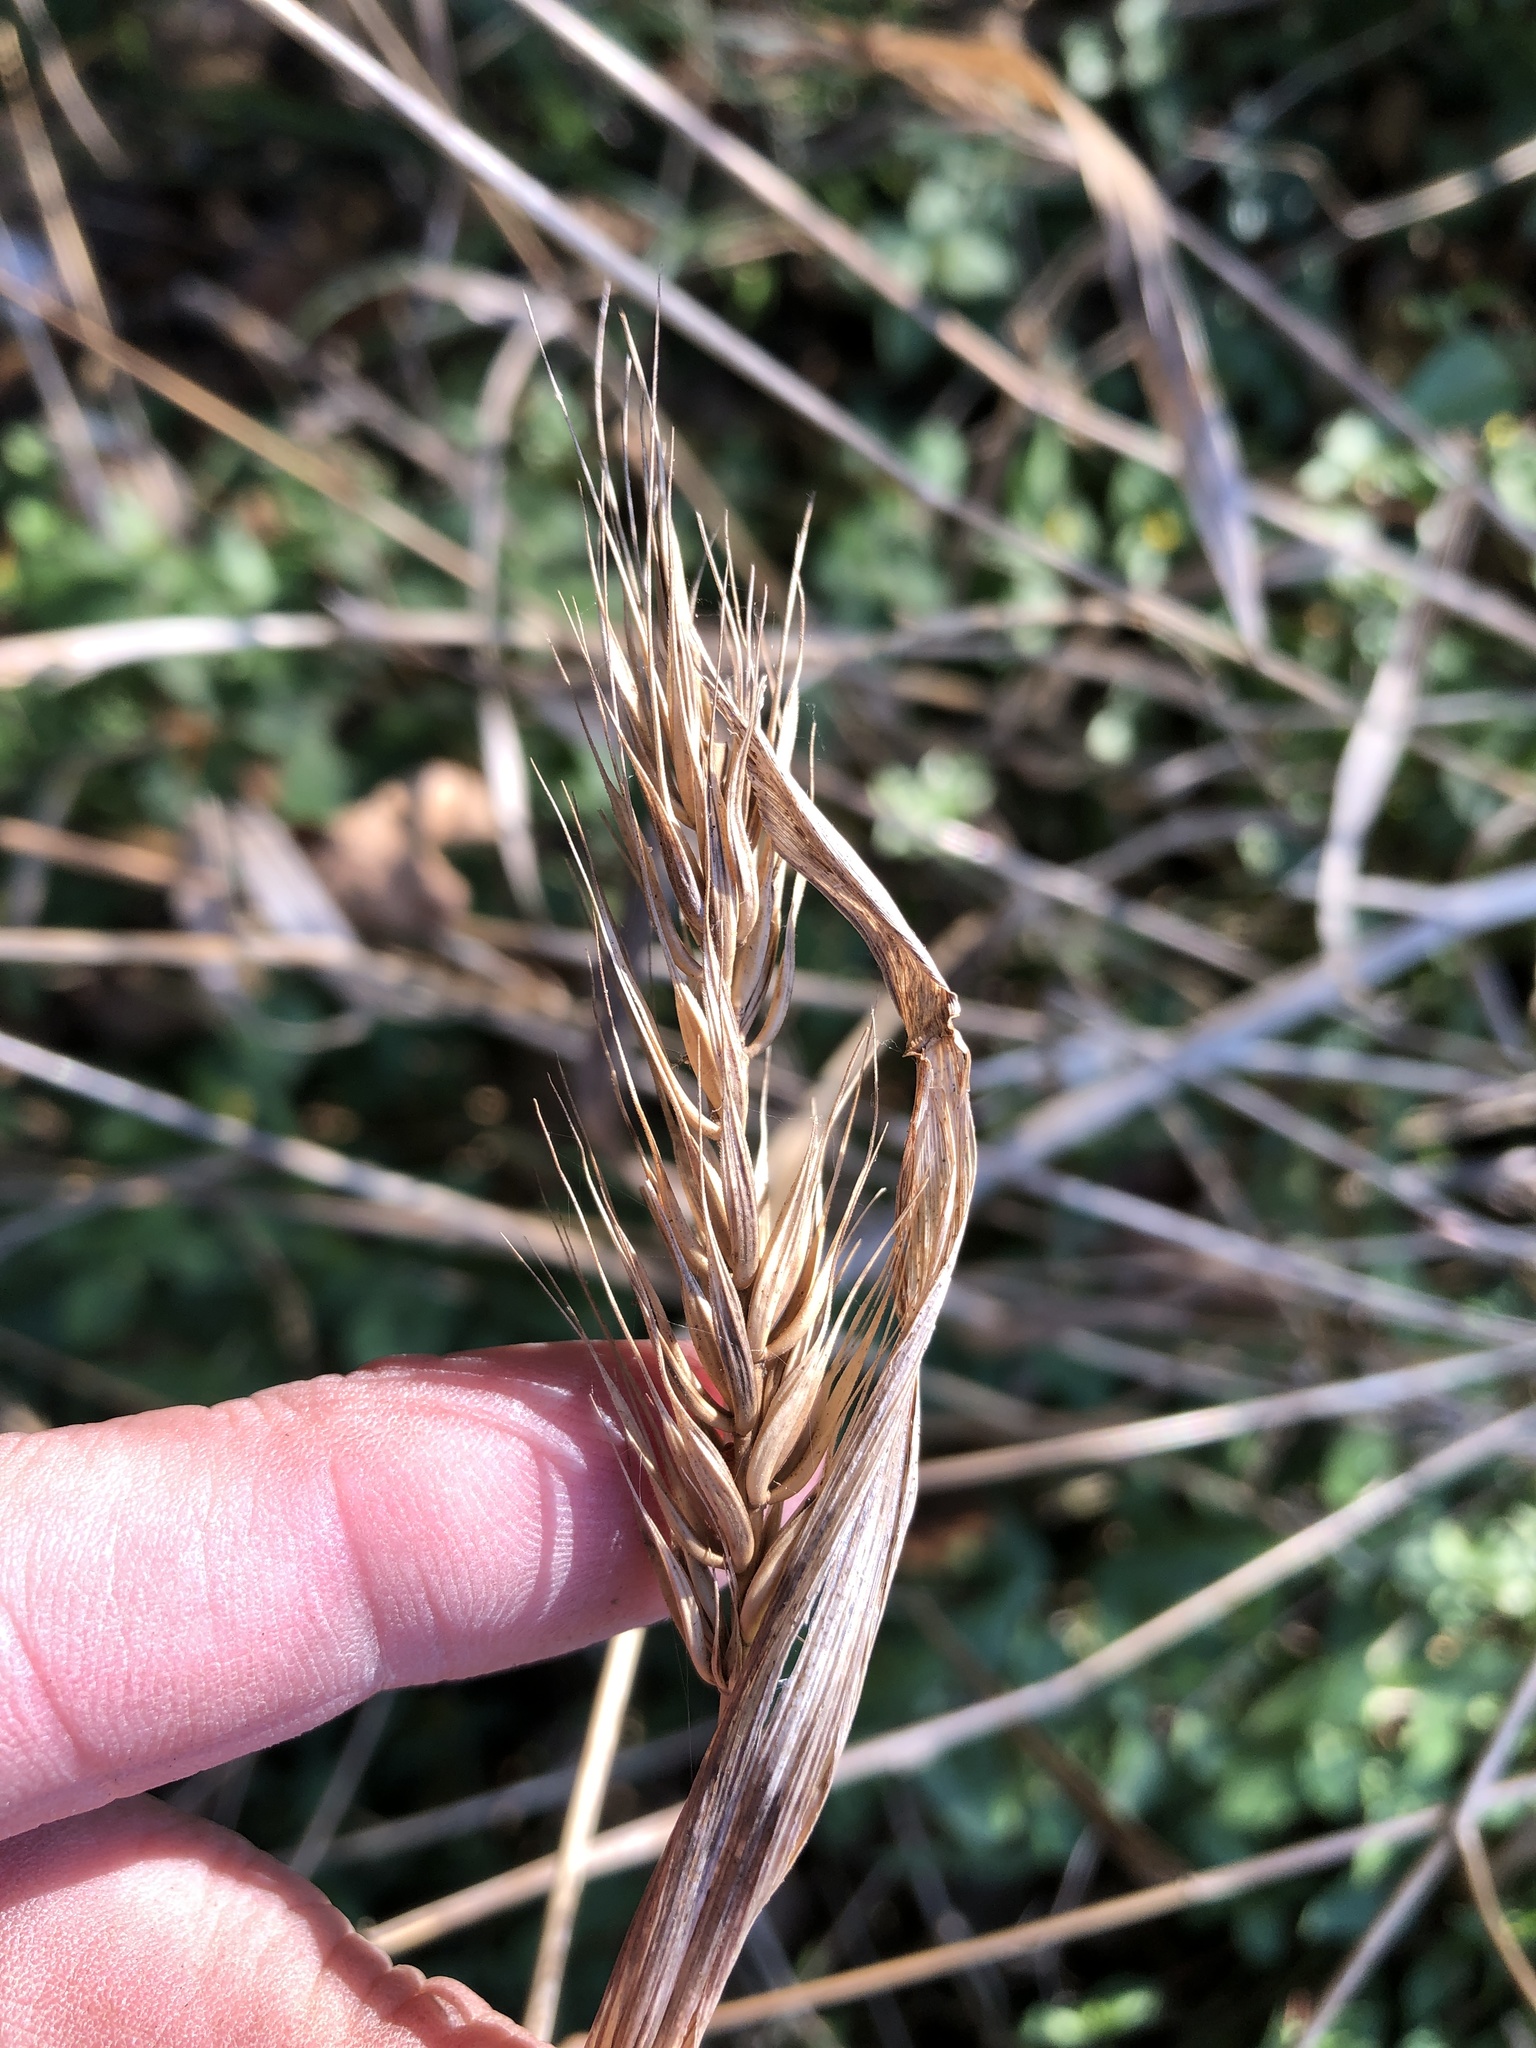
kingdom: Plantae
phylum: Tracheophyta
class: Liliopsida
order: Poales
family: Poaceae
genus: Elymus
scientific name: Elymus virginicus
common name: Common eastern wildrye
